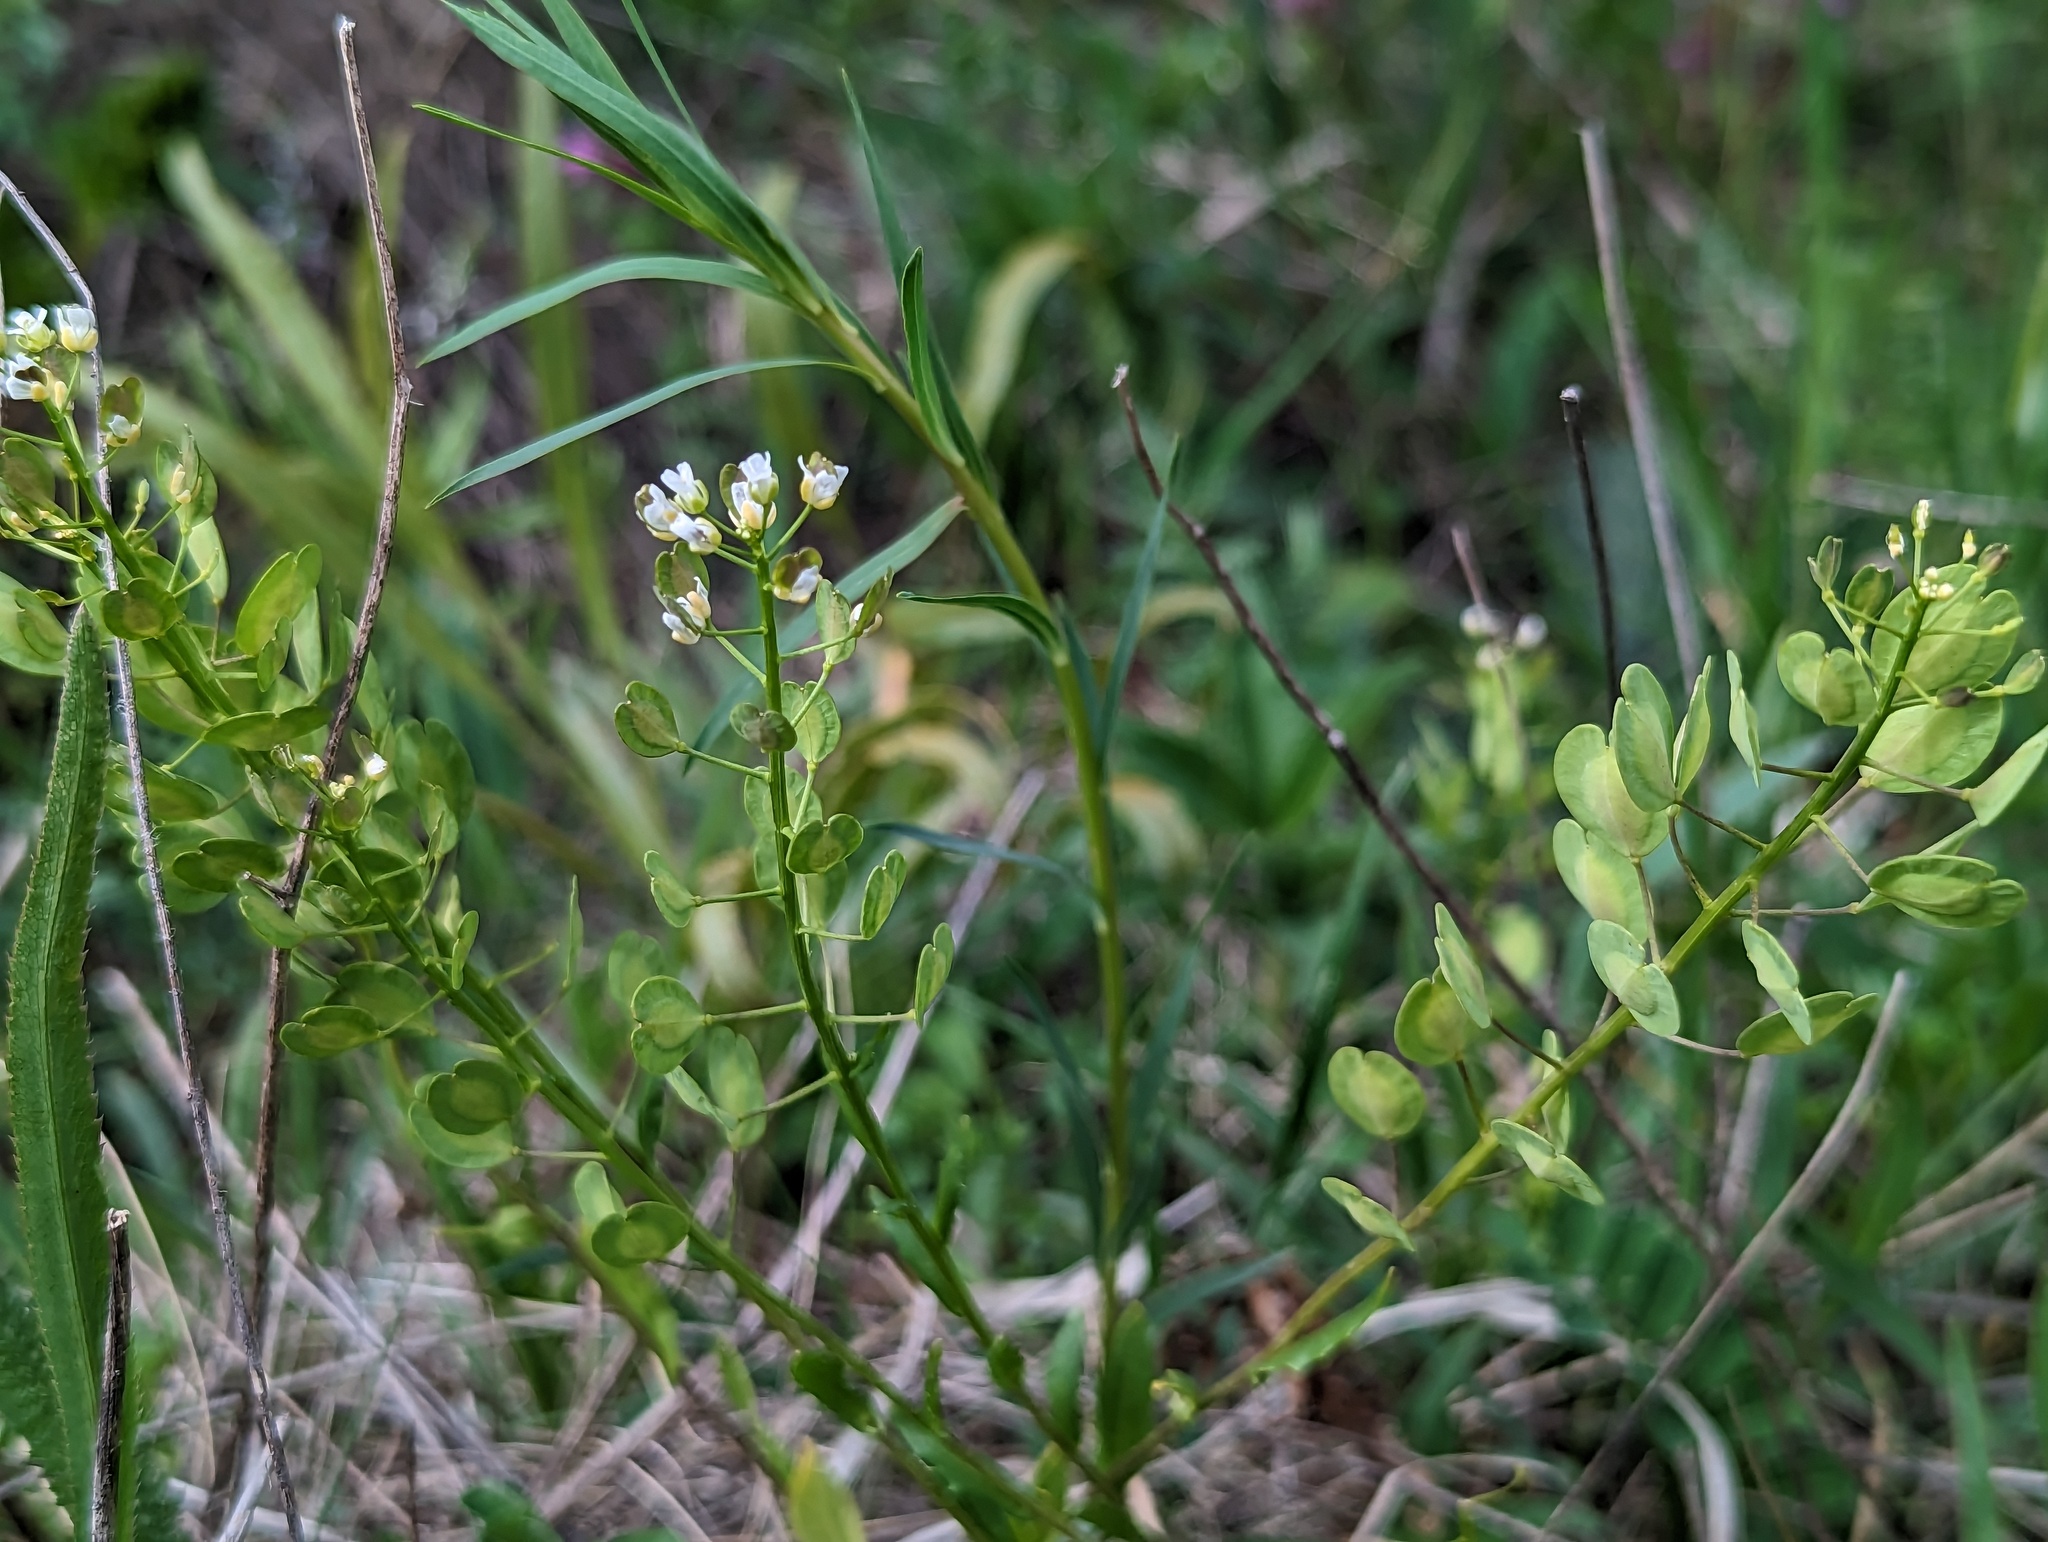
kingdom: Plantae
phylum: Tracheophyta
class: Magnoliopsida
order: Brassicales
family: Brassicaceae
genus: Thlaspi
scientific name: Thlaspi arvense
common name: Field pennycress
